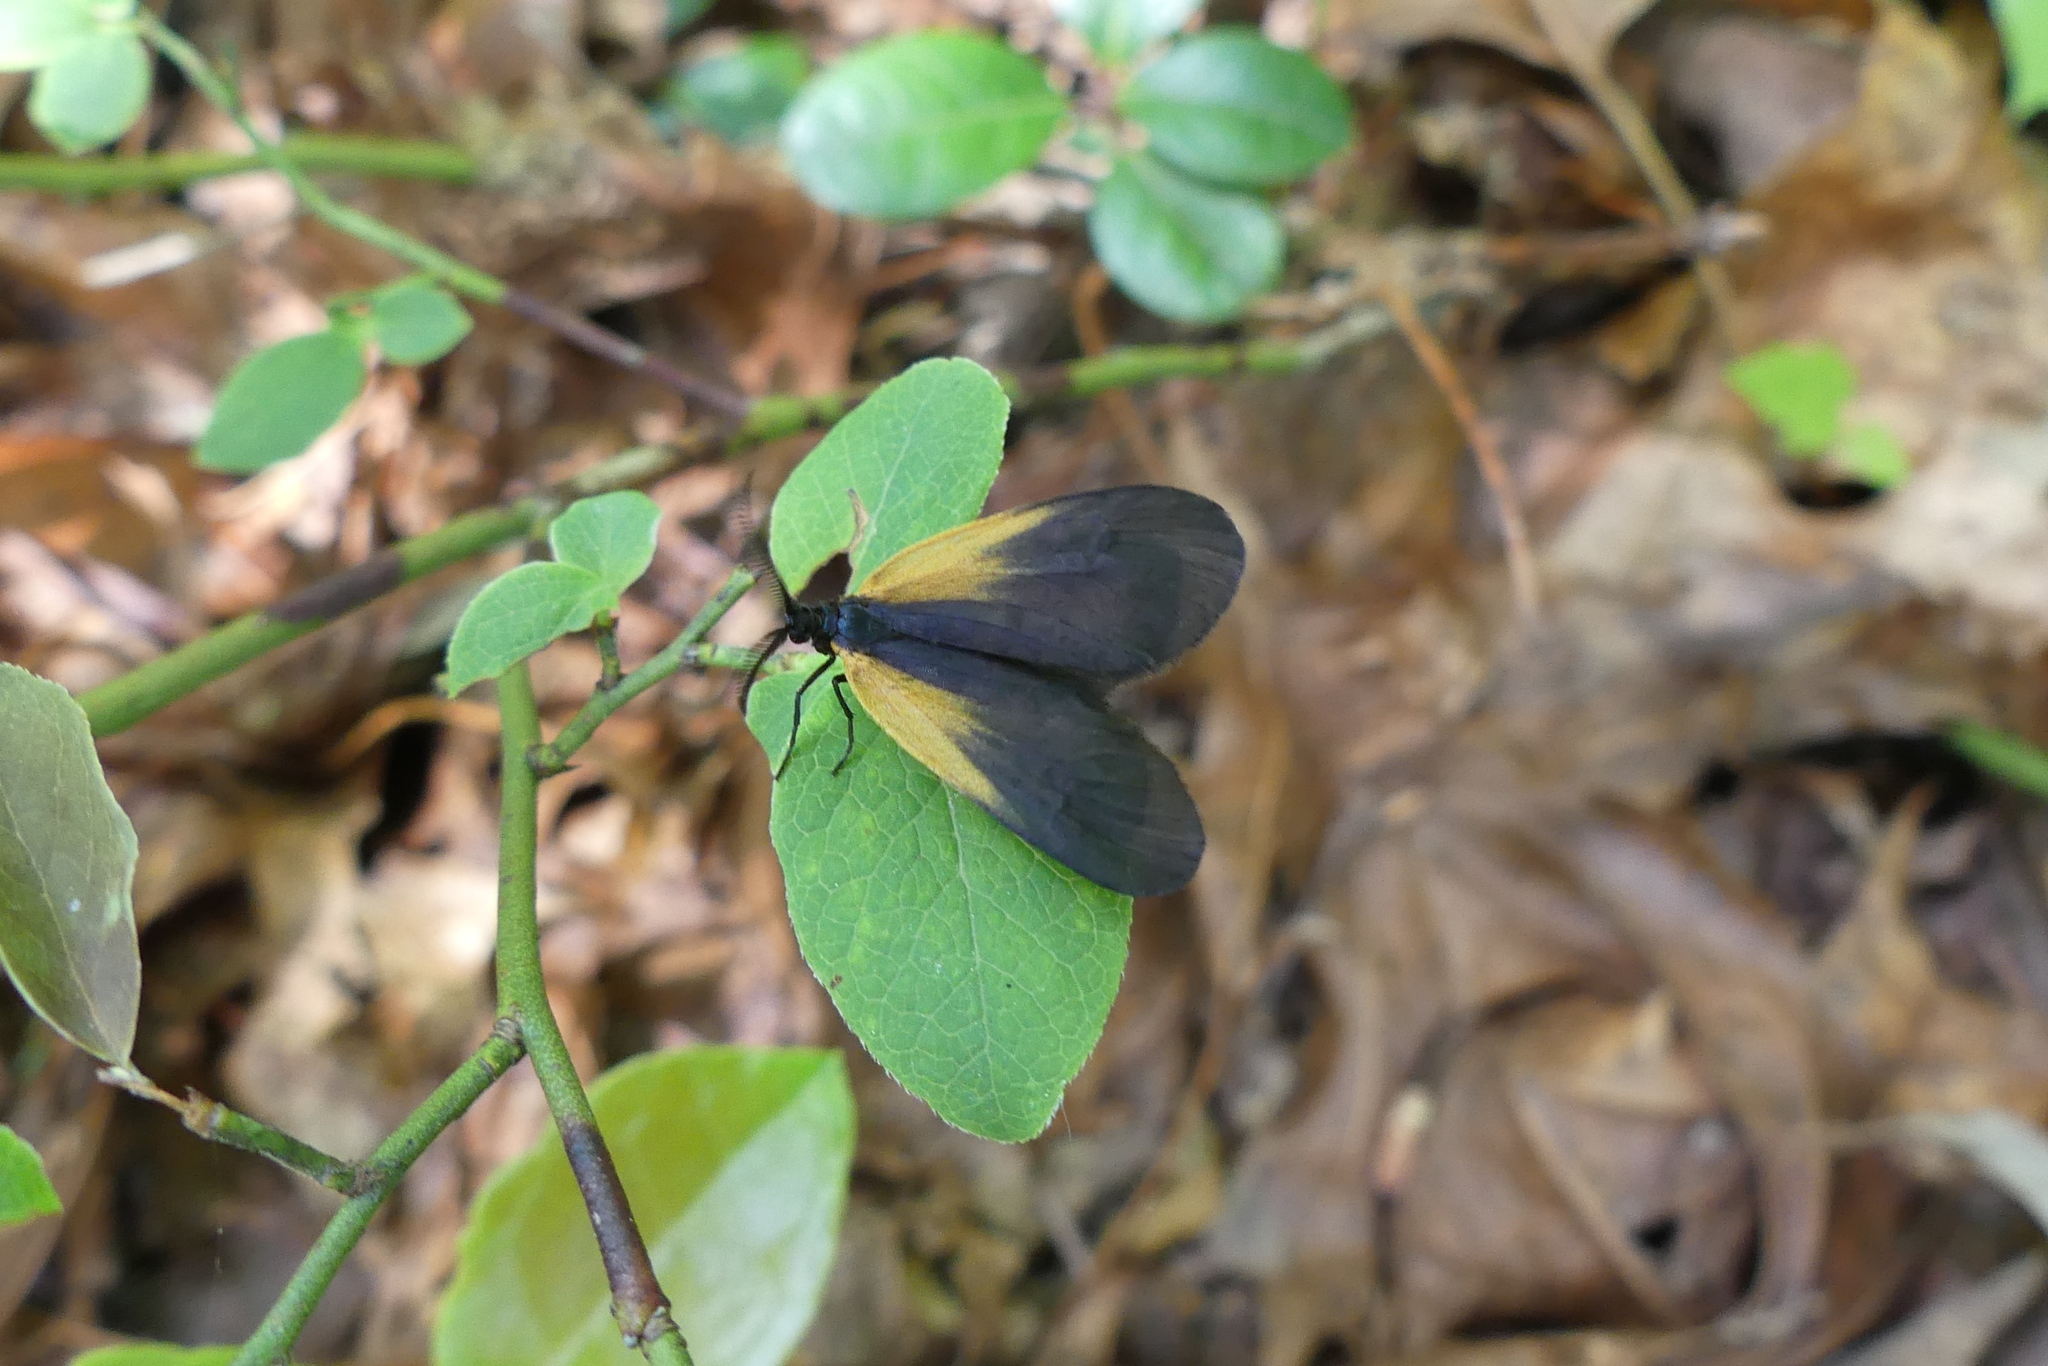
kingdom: Animalia
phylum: Arthropoda
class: Insecta
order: Lepidoptera
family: Zygaenidae
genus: Malthaca
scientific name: Malthaca dimidiata
